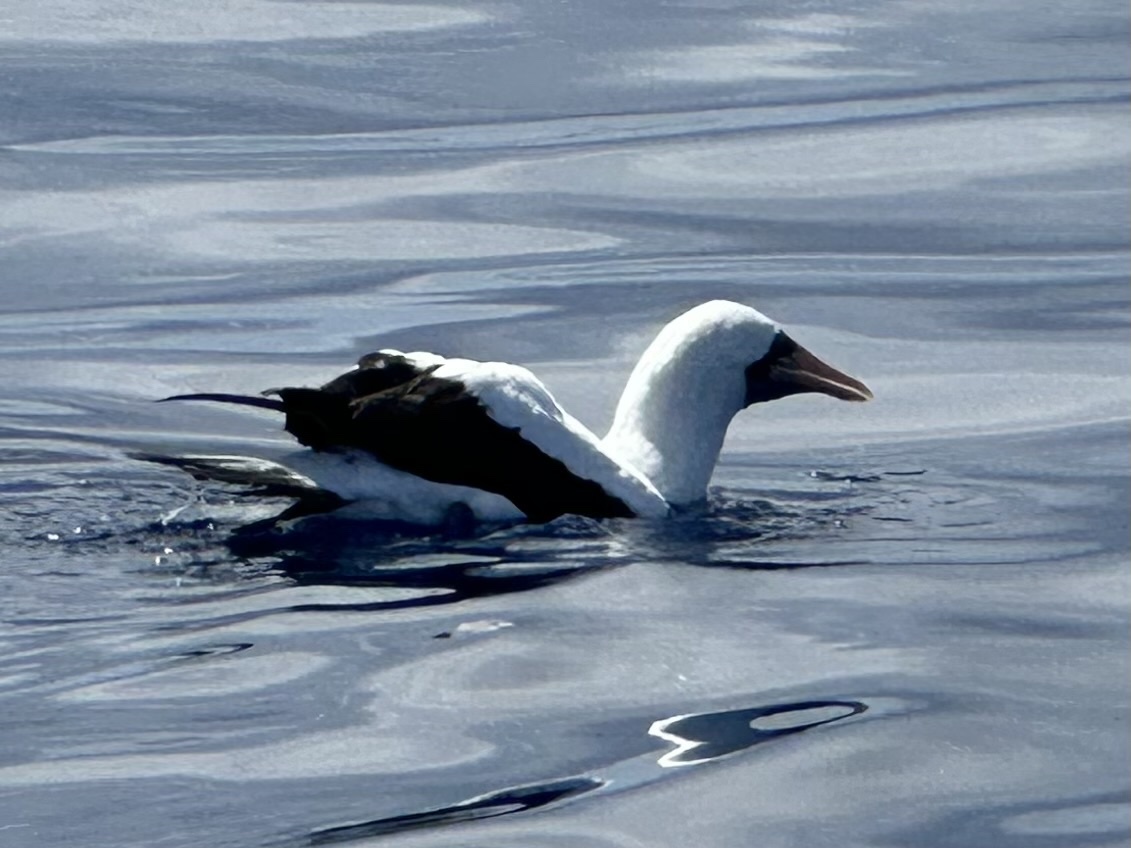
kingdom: Animalia
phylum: Chordata
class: Aves
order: Suliformes
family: Sulidae
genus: Sula
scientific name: Sula granti
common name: Nazca booby
